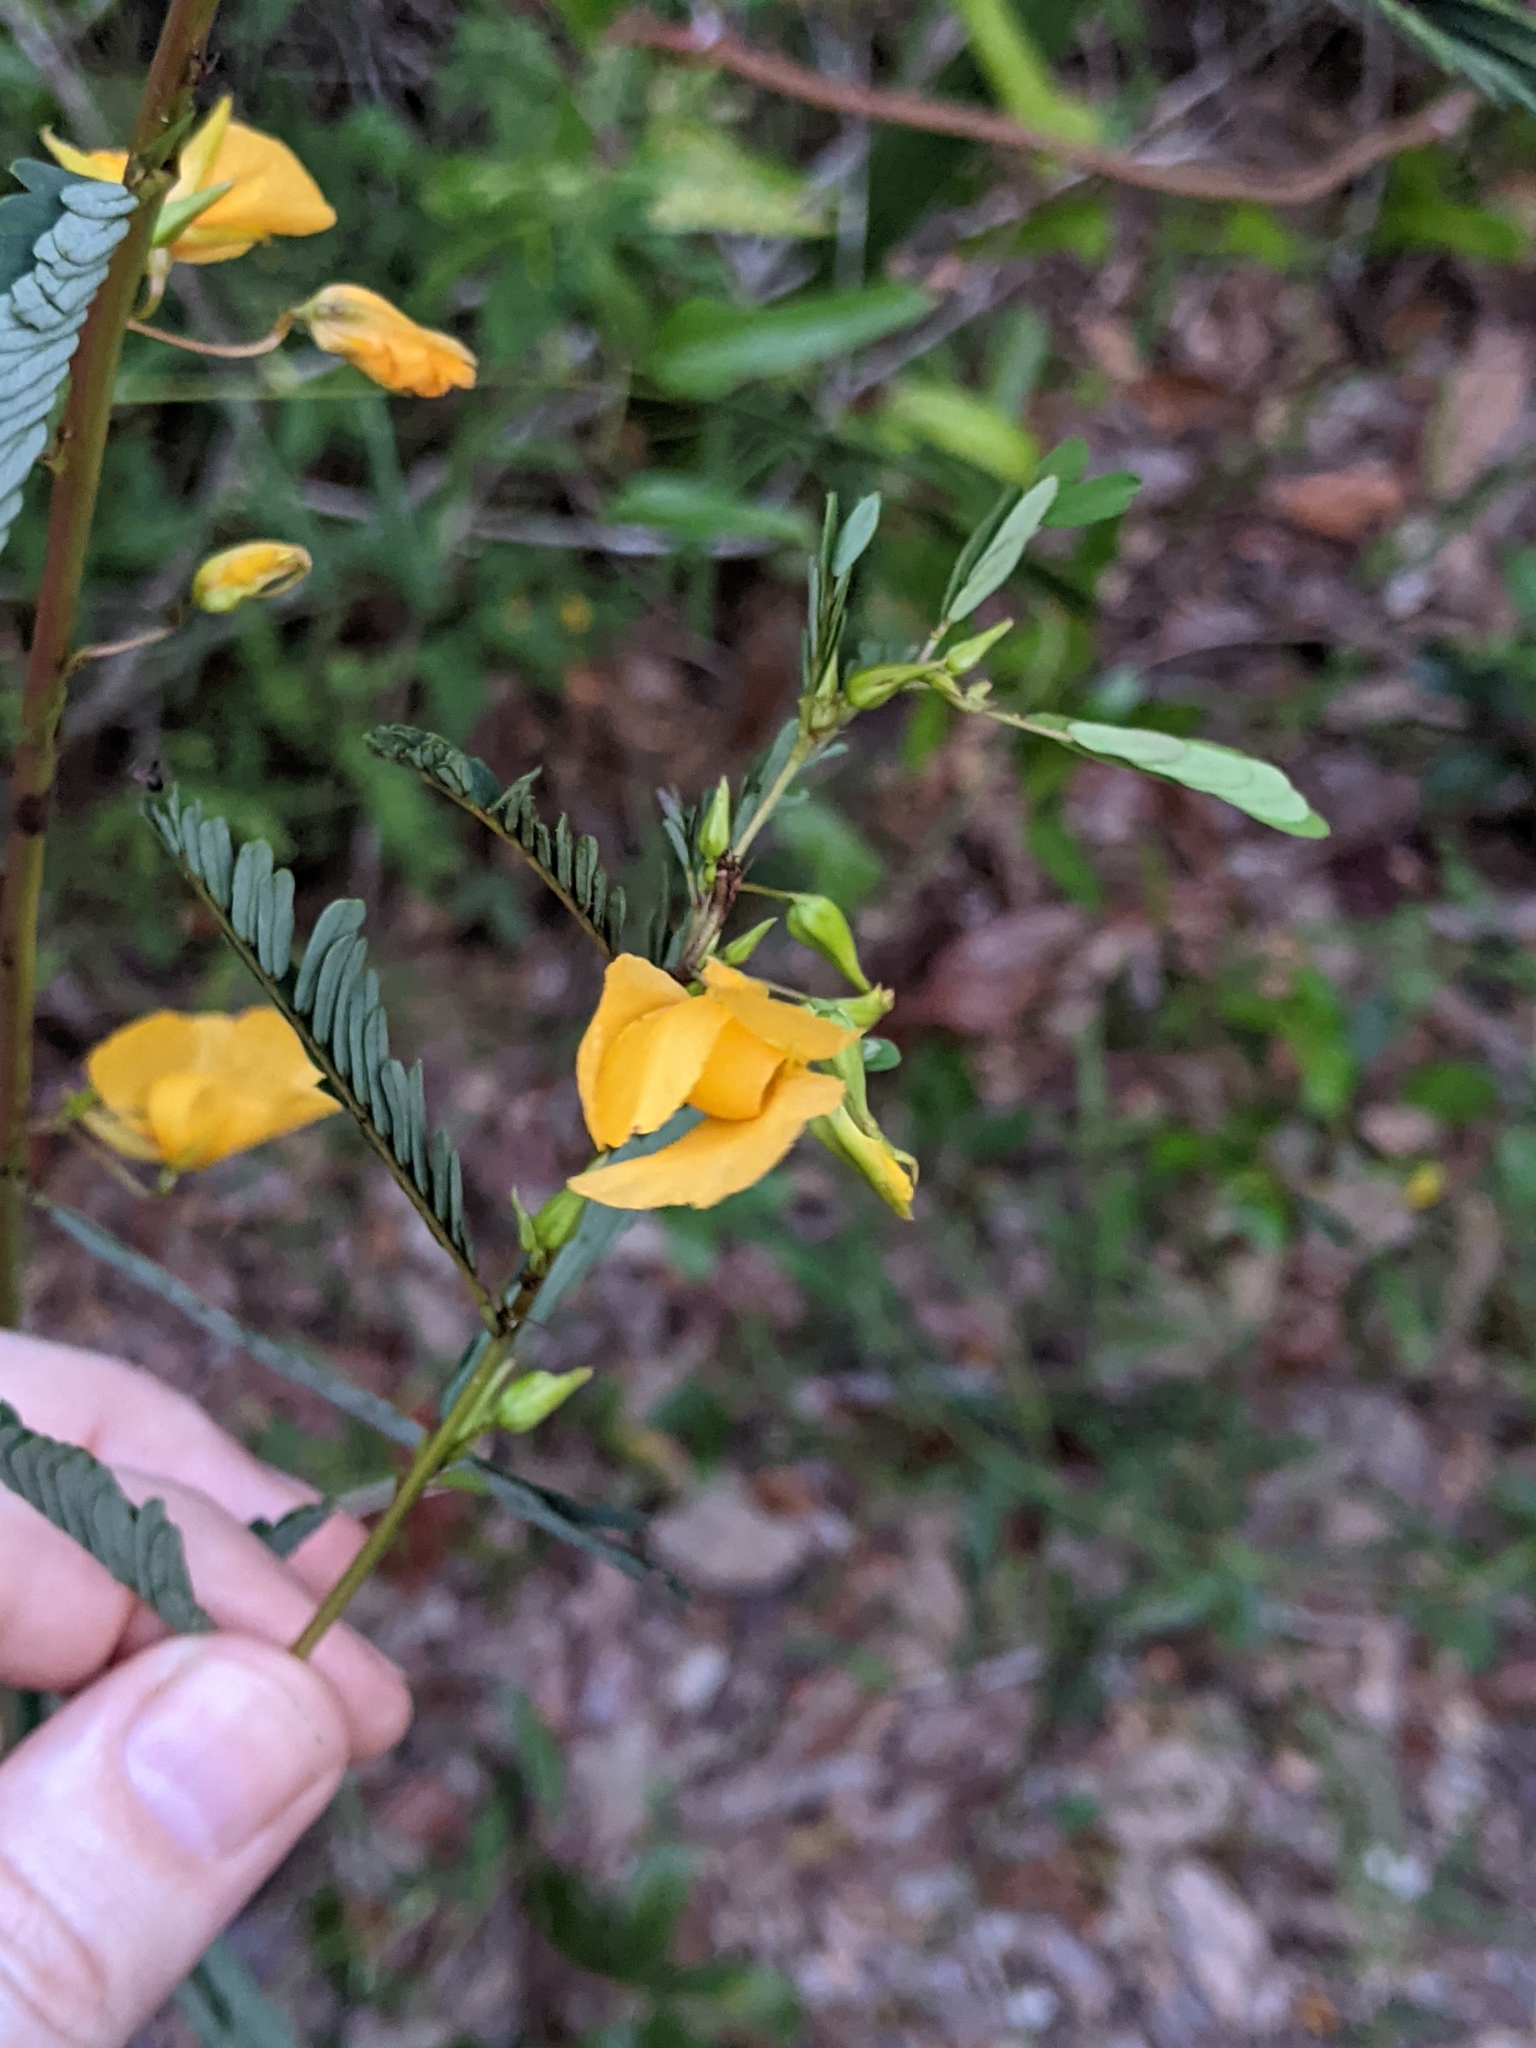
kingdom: Plantae
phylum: Tracheophyta
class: Magnoliopsida
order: Fabales
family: Fabaceae
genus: Chamaecrista
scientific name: Chamaecrista fasciculata
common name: Golden cassia
